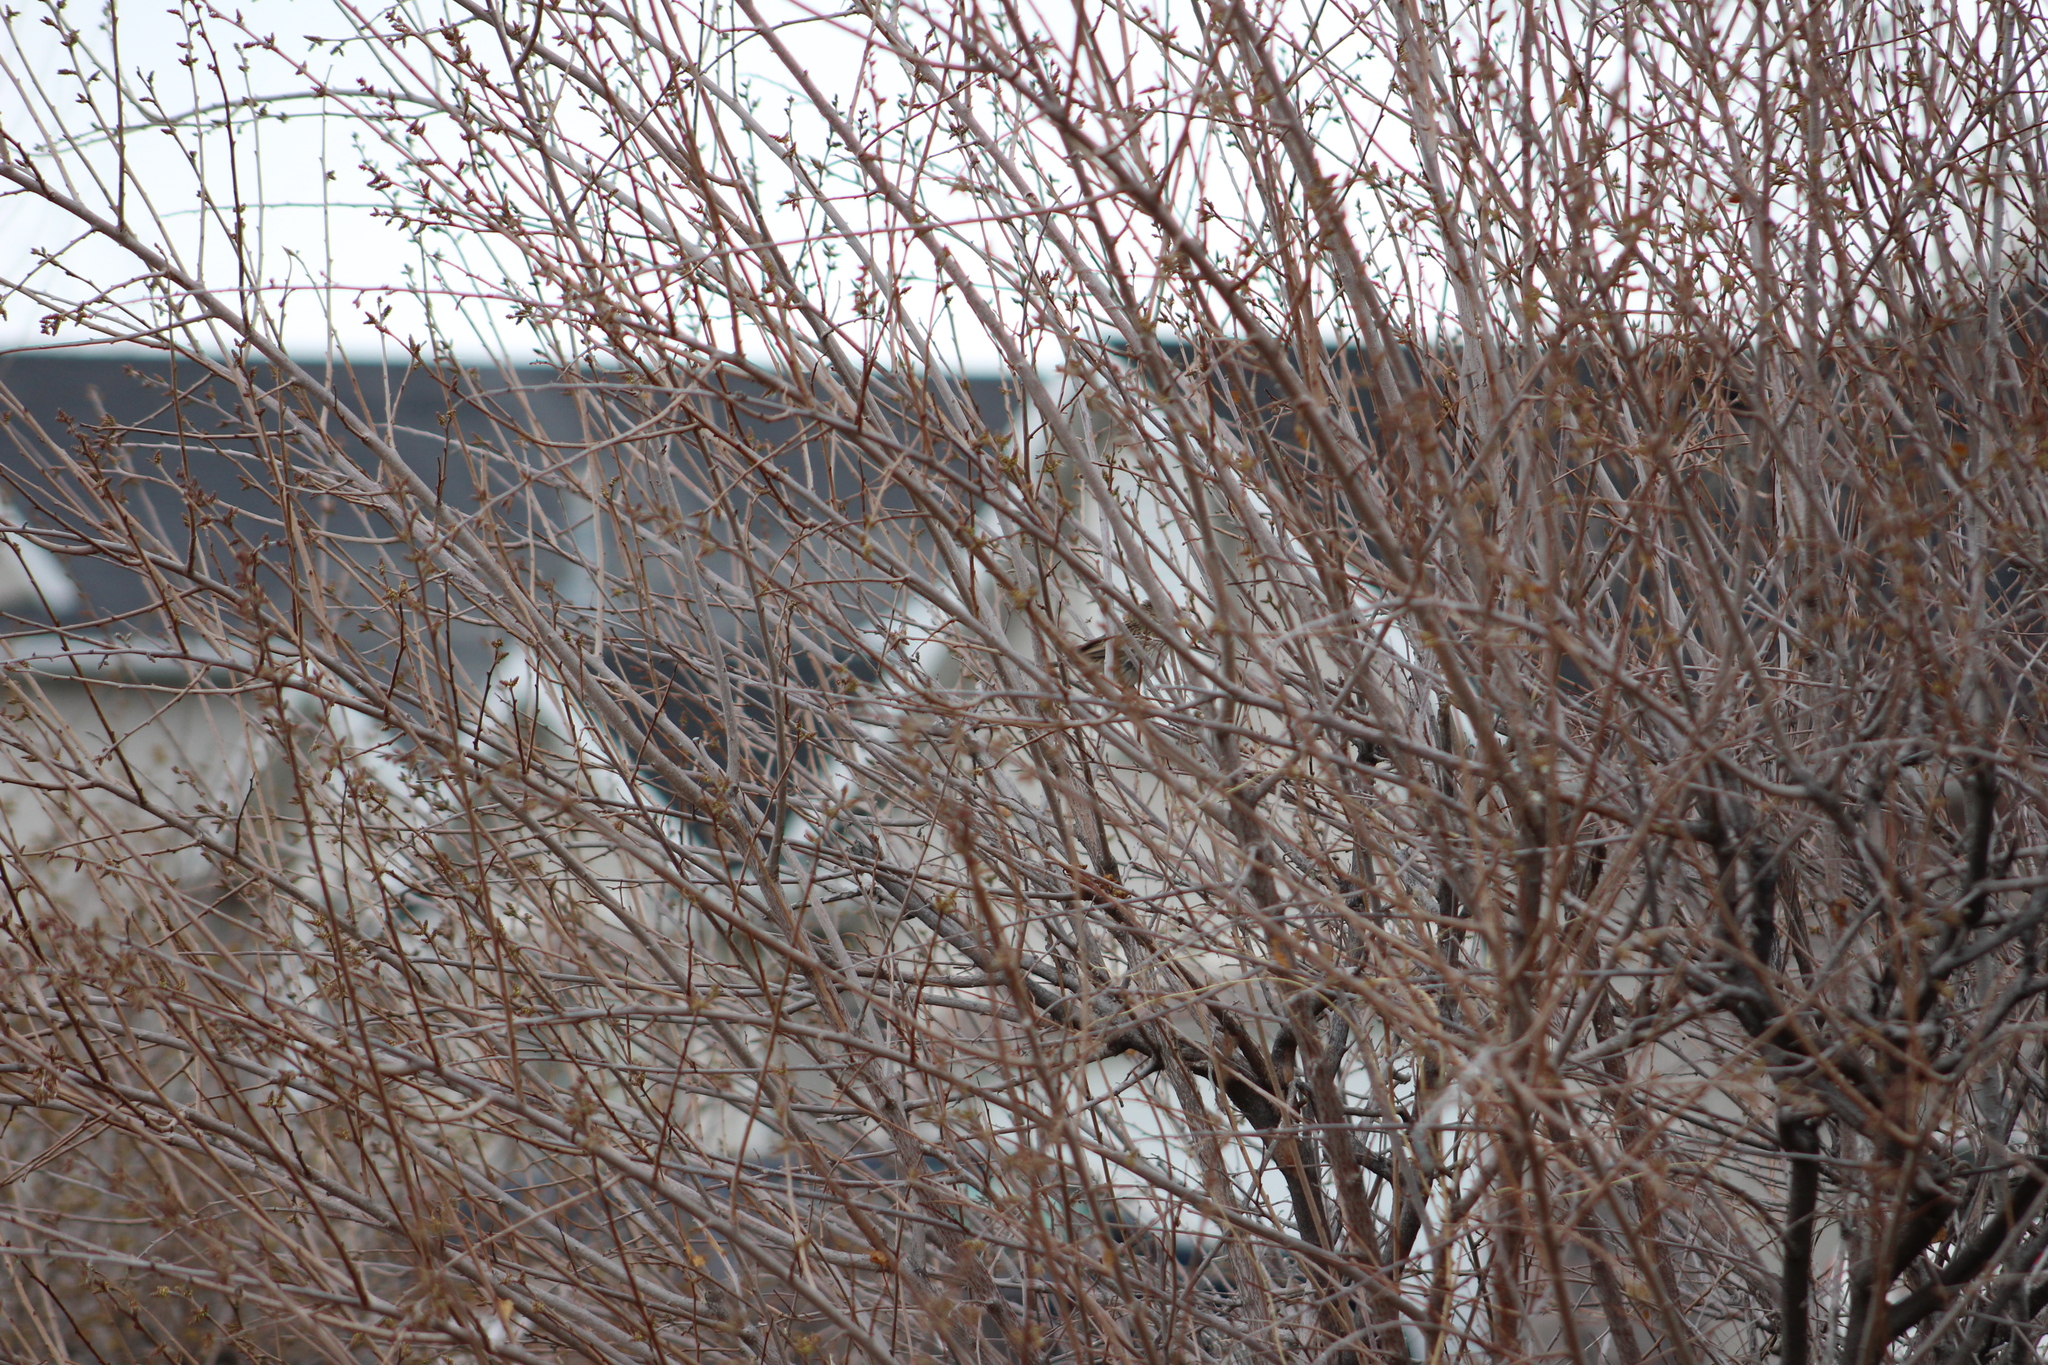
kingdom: Animalia
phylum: Chordata
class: Aves
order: Passeriformes
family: Passerellidae
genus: Melospiza
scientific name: Melospiza lincolnii
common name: Lincoln's sparrow
